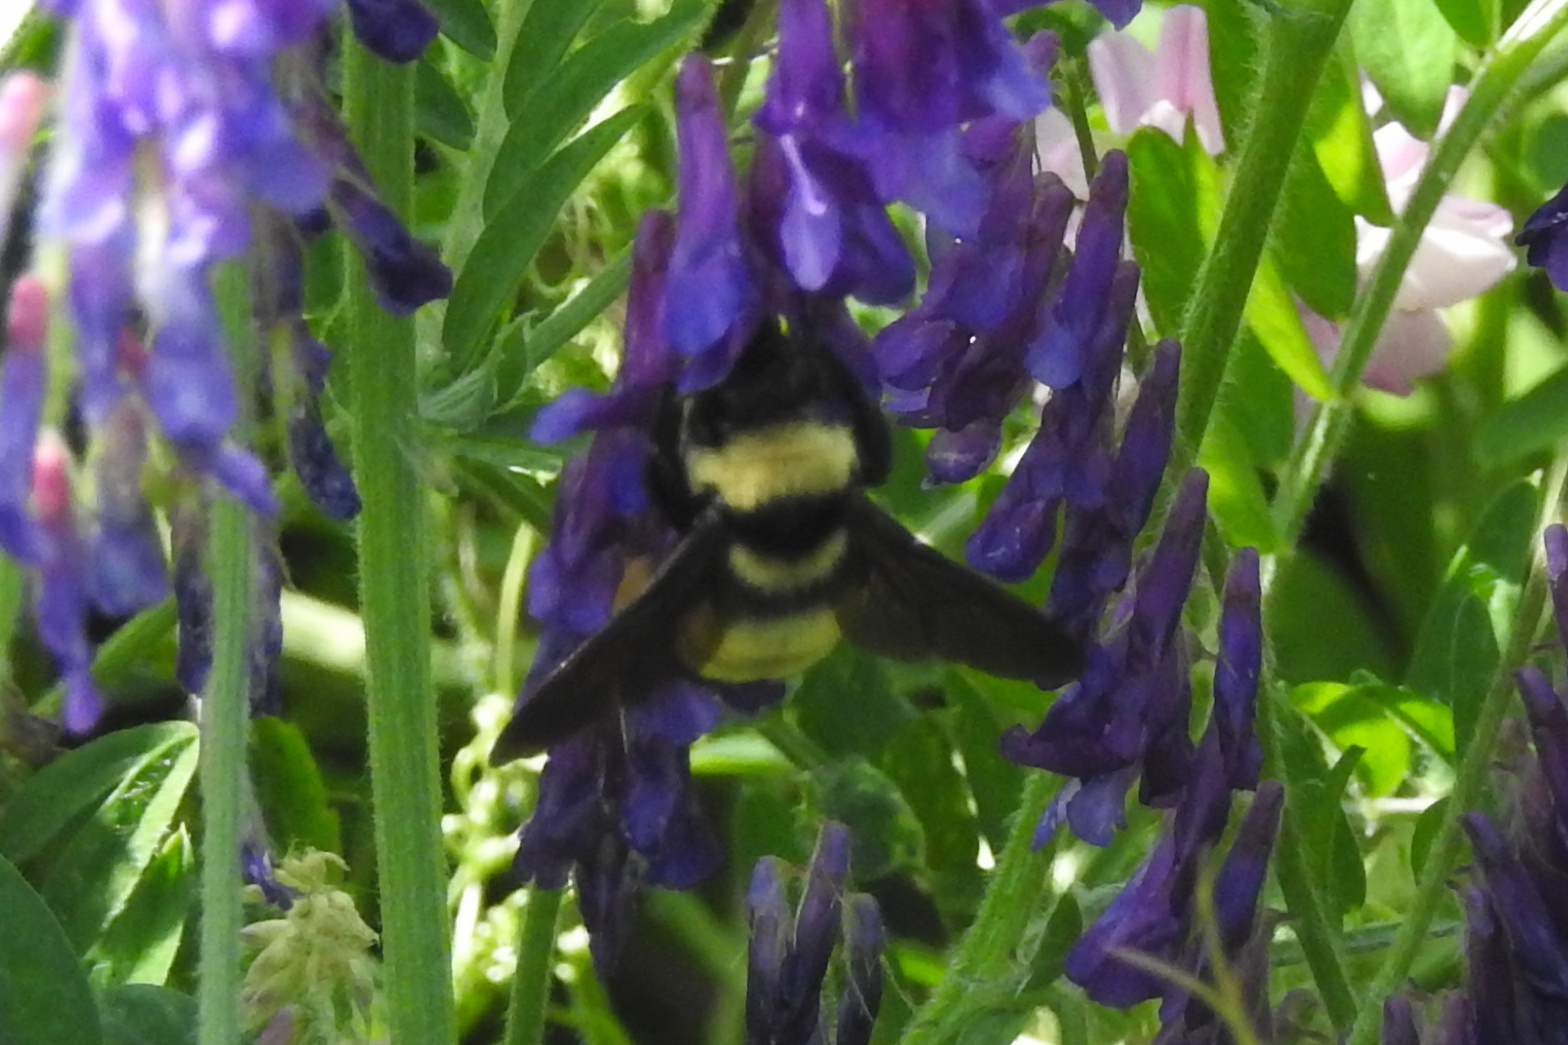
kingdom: Animalia
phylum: Arthropoda
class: Insecta
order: Hymenoptera
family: Apidae
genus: Bombus
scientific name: Bombus auricomus
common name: Black and gold bumble bee
